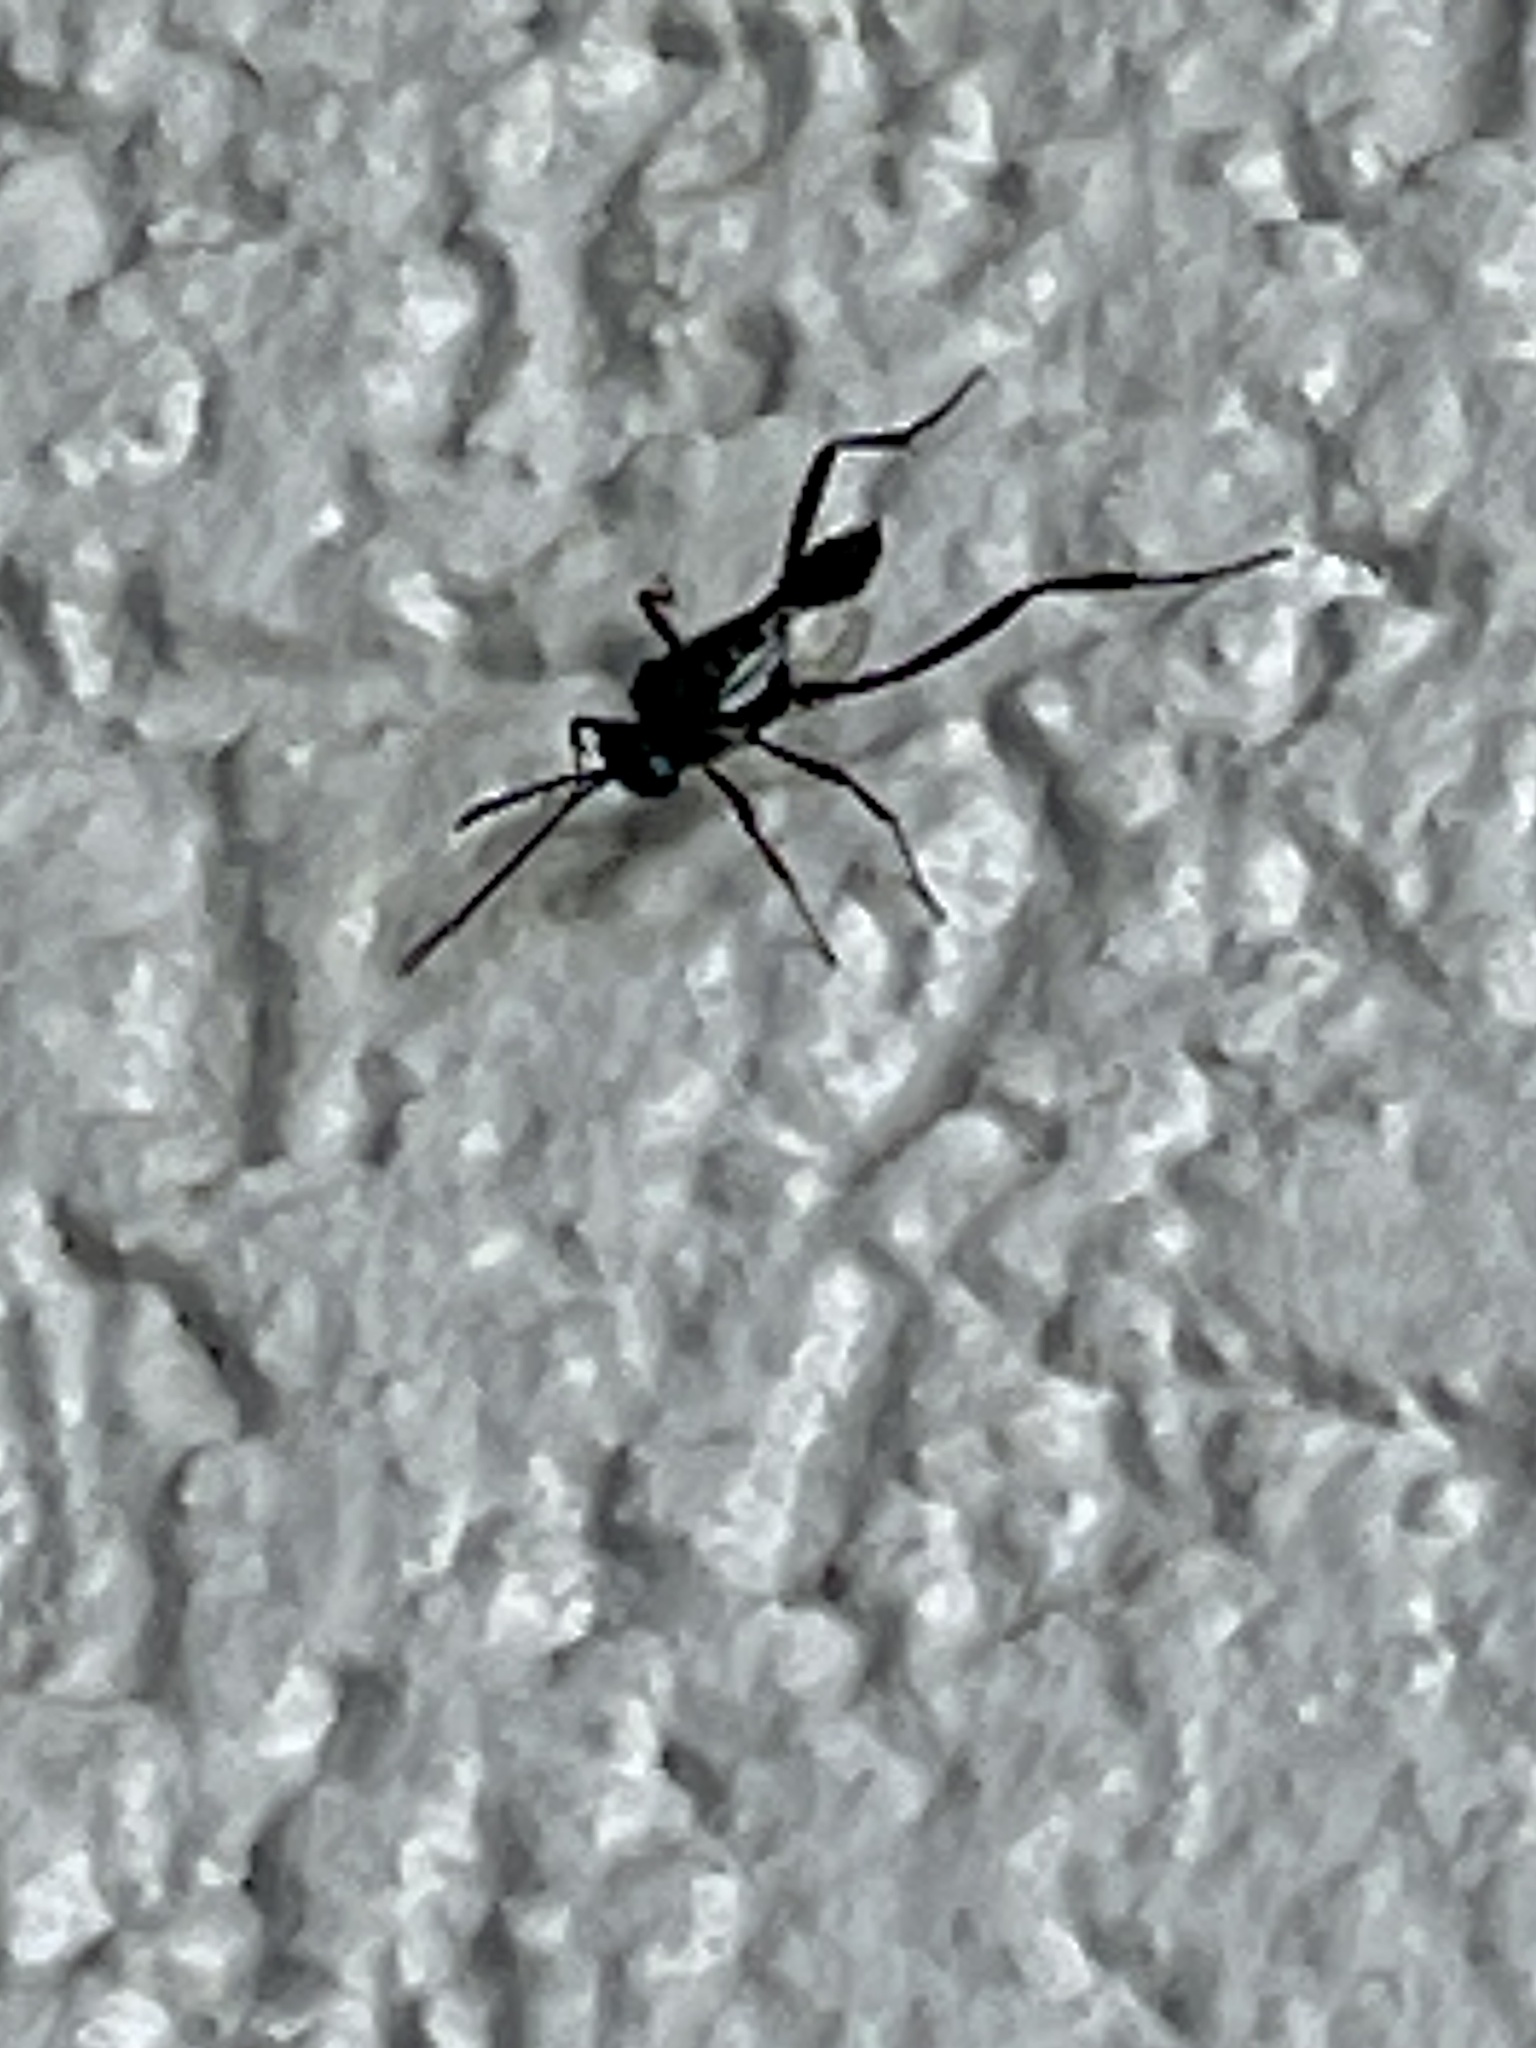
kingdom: Animalia
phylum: Arthropoda
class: Insecta
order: Hymenoptera
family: Evaniidae
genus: Evania
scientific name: Evania appendigaster
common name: Ensign wasp
